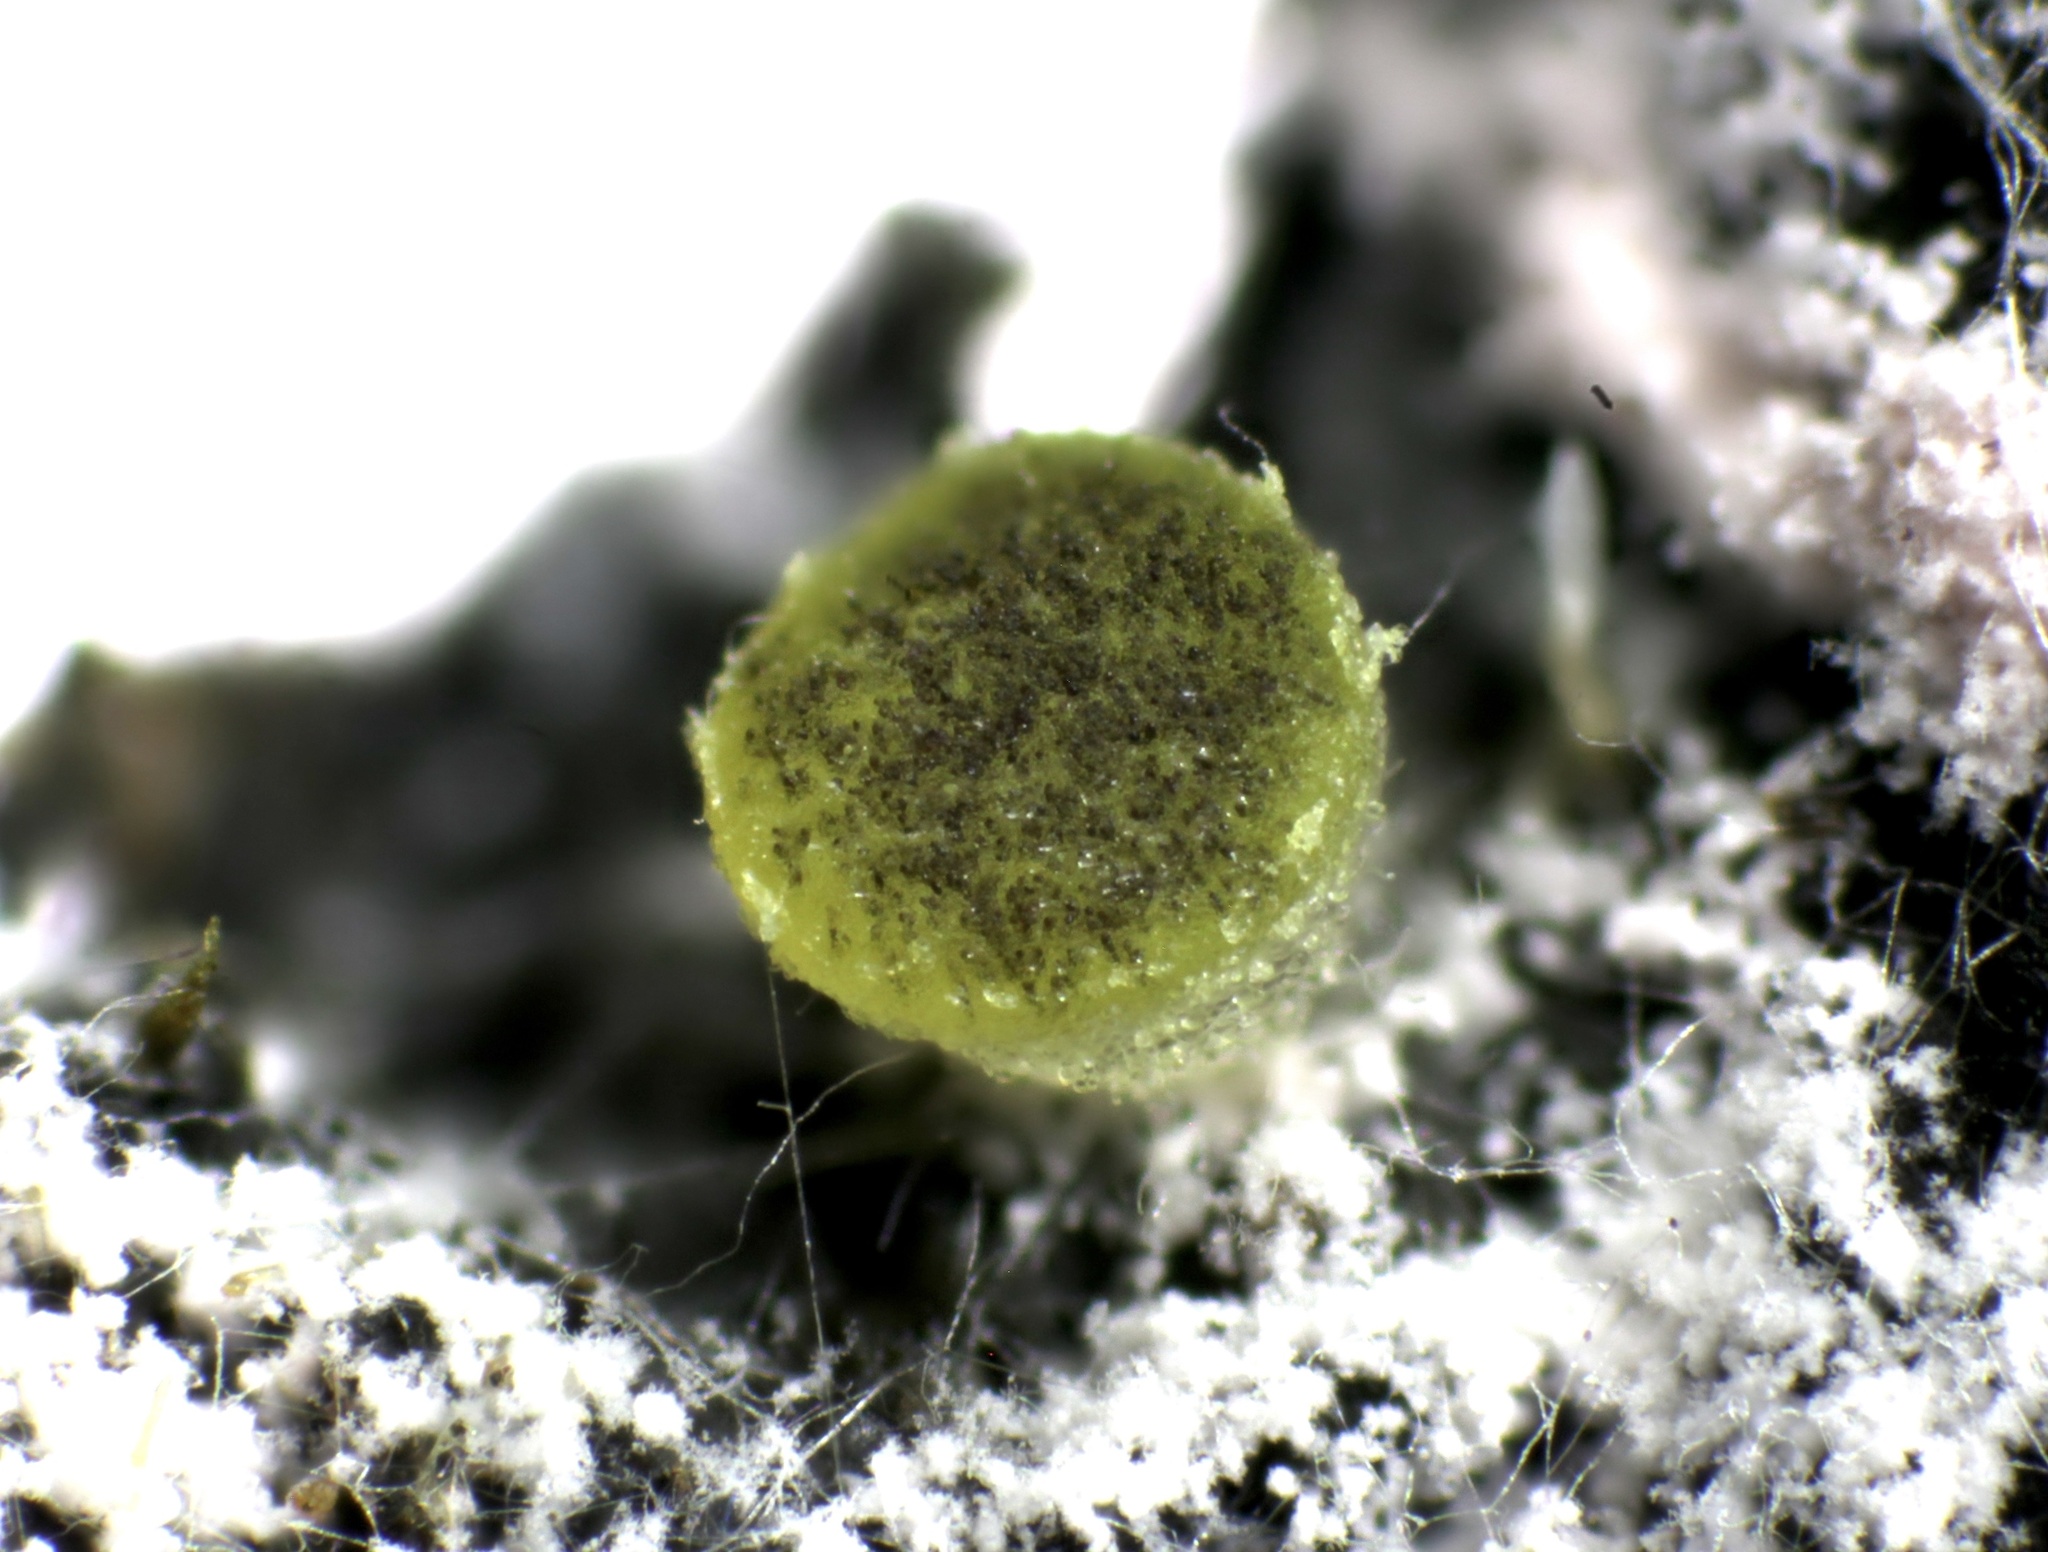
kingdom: Fungi
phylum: Ascomycota
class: Pezizomycetes
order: Pezizales
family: Ascobolaceae
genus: Ascobolus
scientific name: Ascobolus crenulatus
